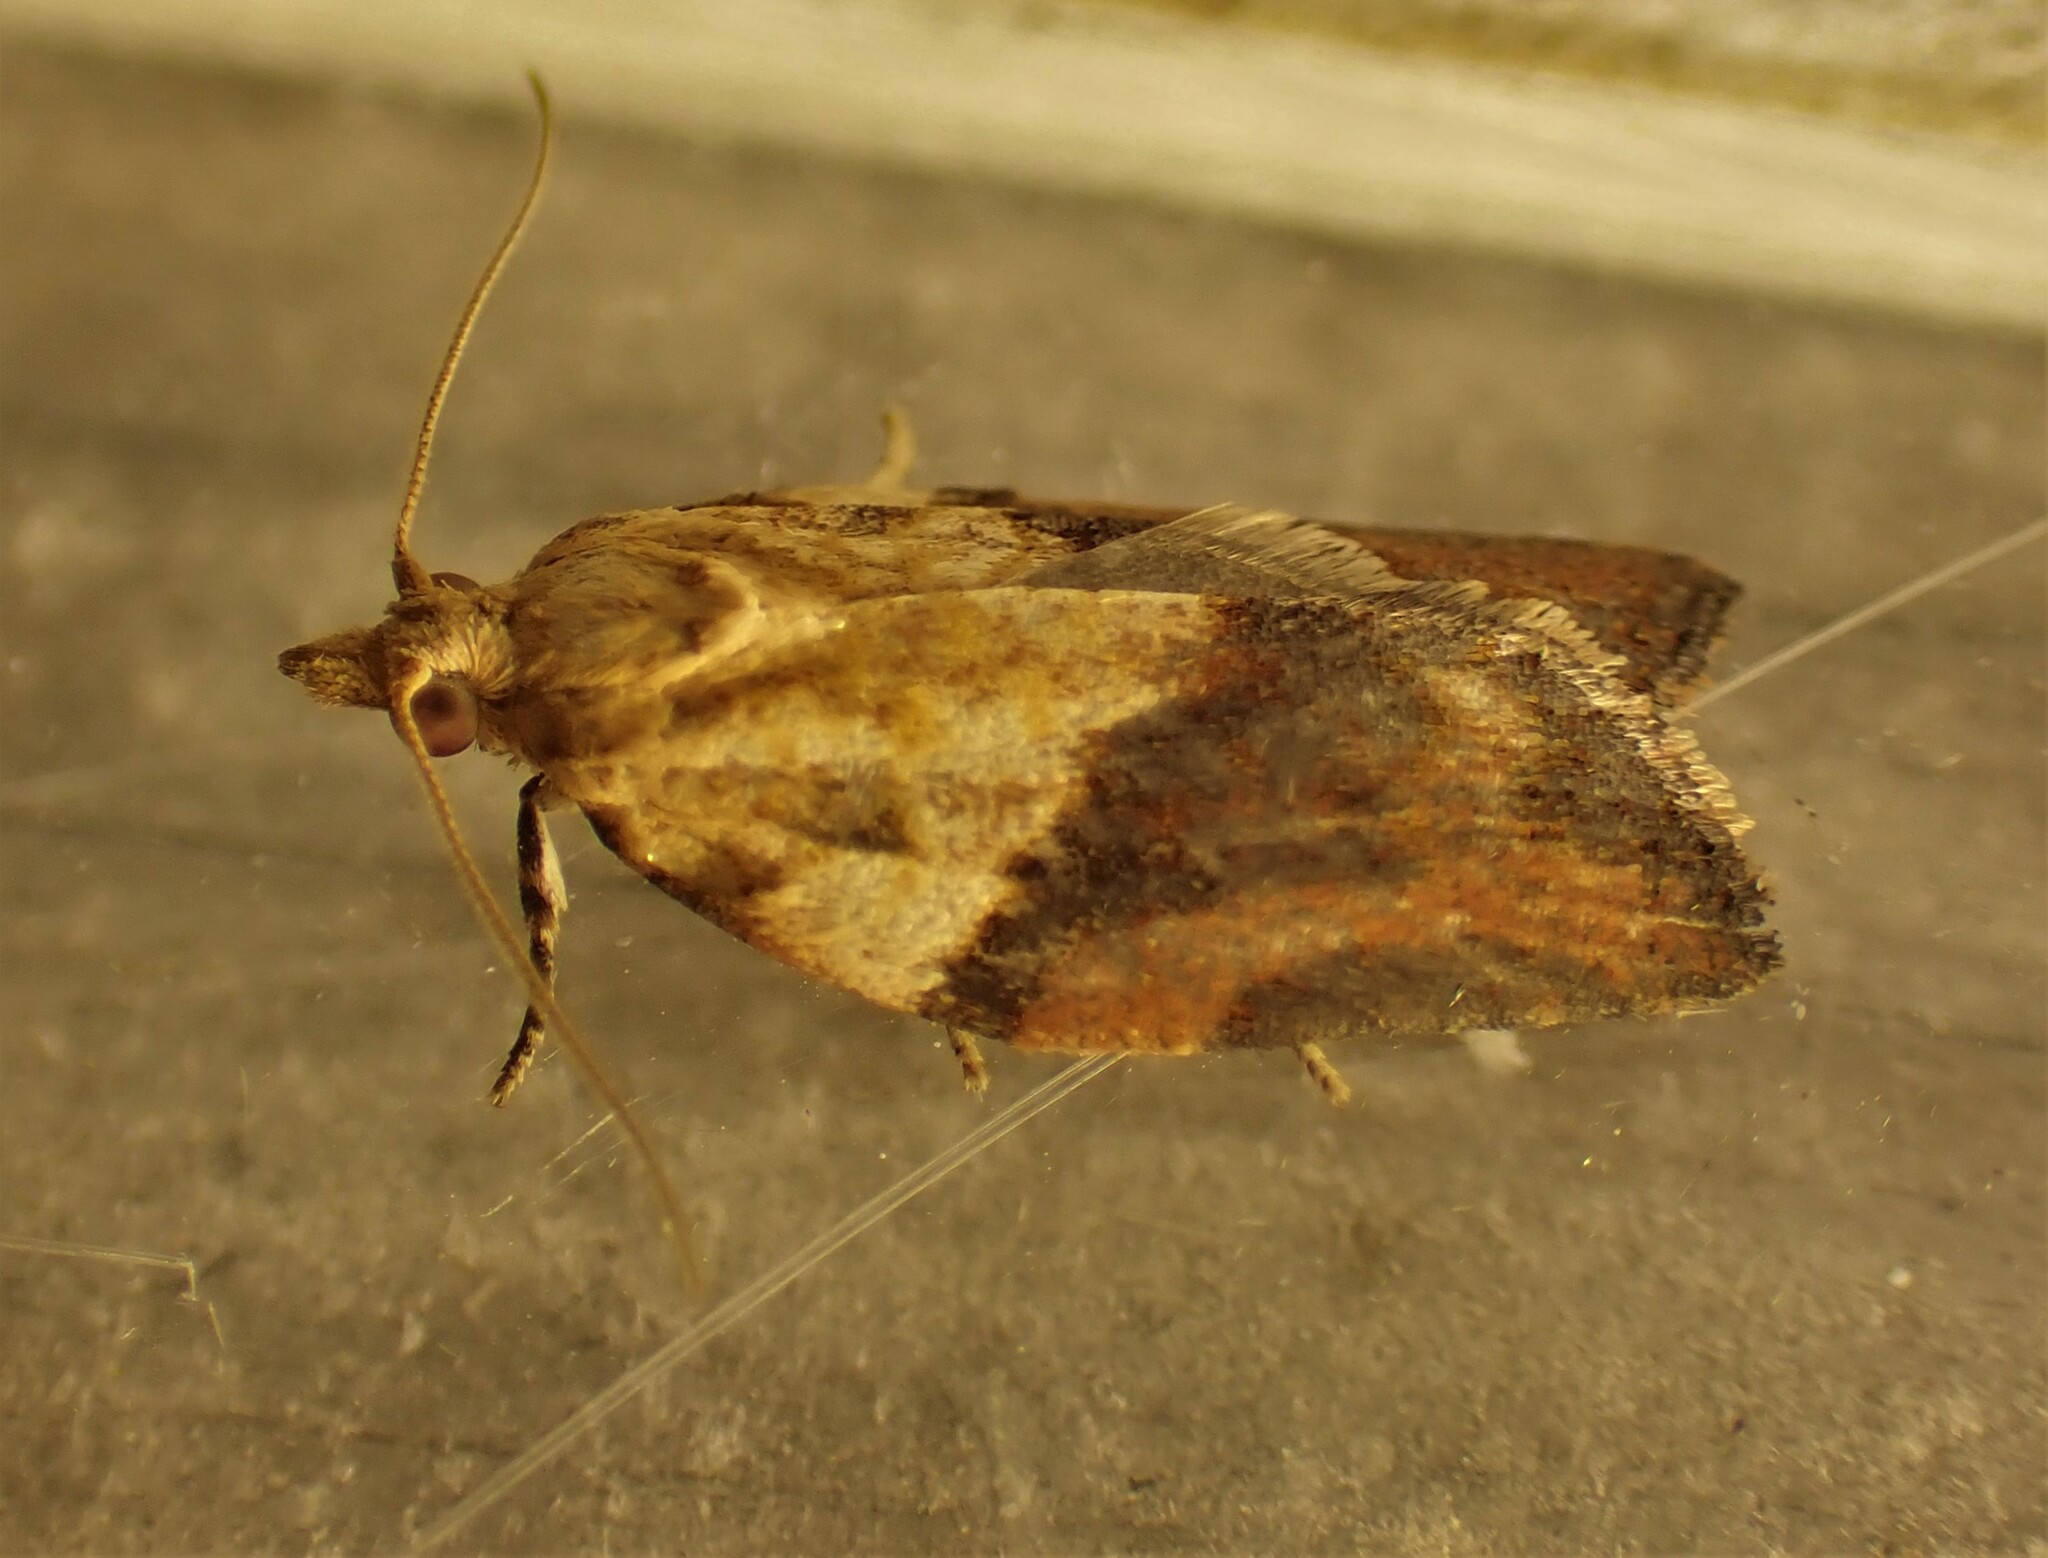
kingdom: Animalia
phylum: Arthropoda
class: Insecta
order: Lepidoptera
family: Tortricidae
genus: Epiphyas
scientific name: Epiphyas postvittana
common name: Light brown apple moth
